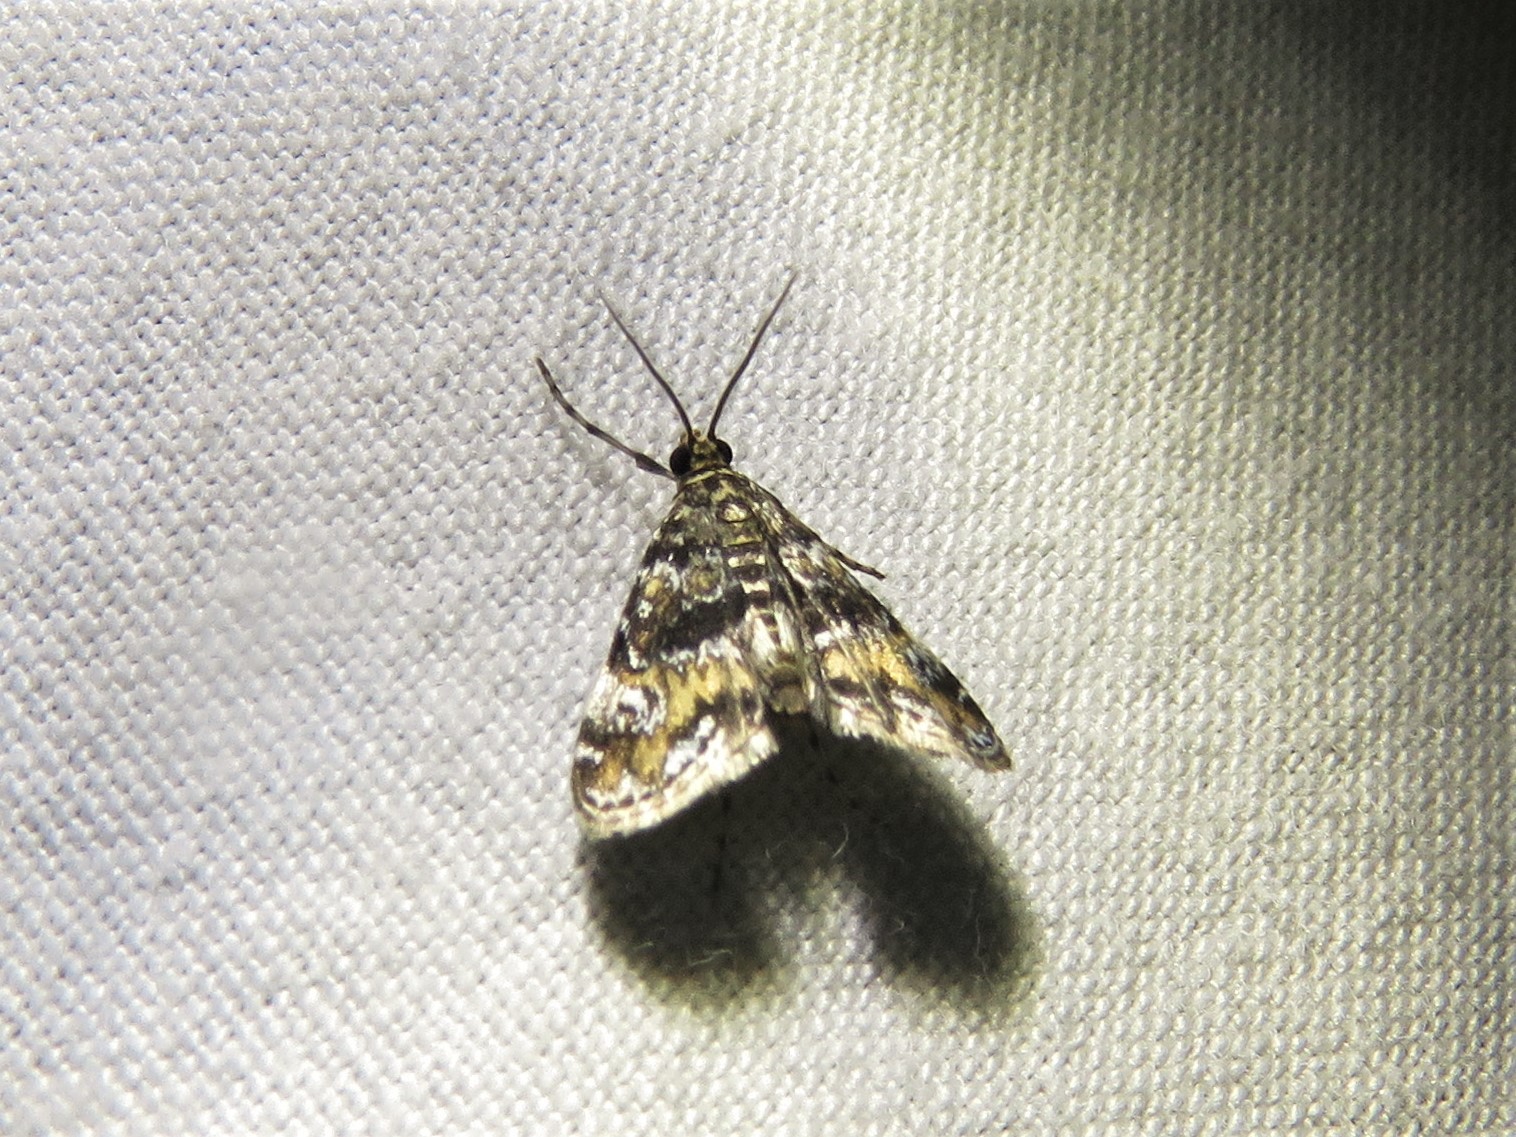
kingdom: Animalia
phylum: Arthropoda
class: Insecta
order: Lepidoptera
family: Crambidae
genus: Elophila
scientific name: Elophila obliteralis
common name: Waterlily leafcutter moth
